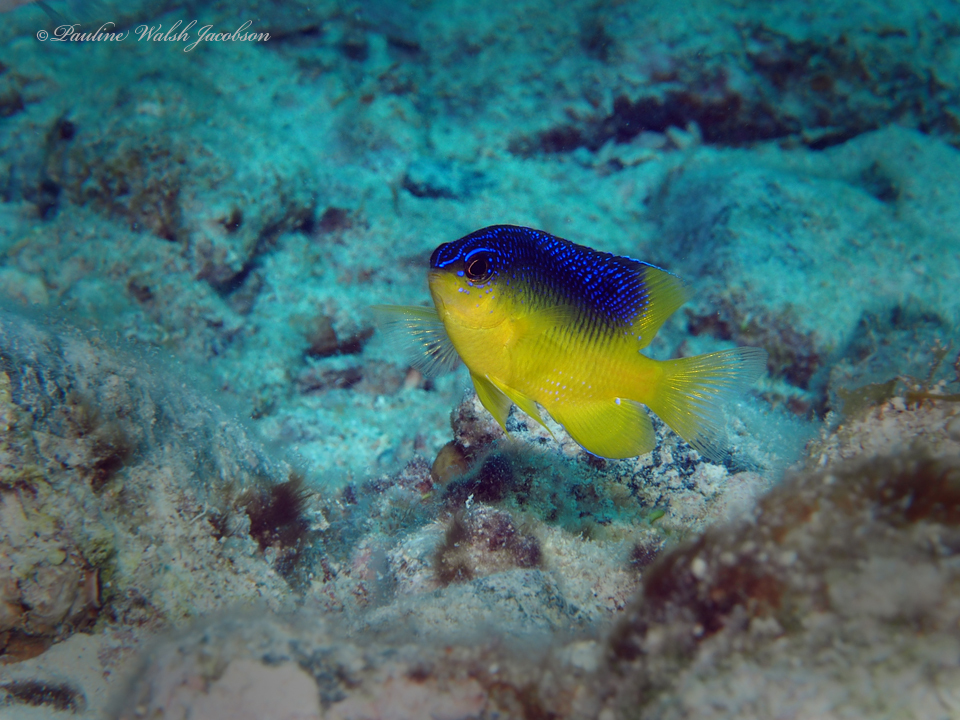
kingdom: Animalia
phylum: Chordata
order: Perciformes
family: Pomacentridae
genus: Stegastes
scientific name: Stegastes leucostictus
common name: Beaugregory
